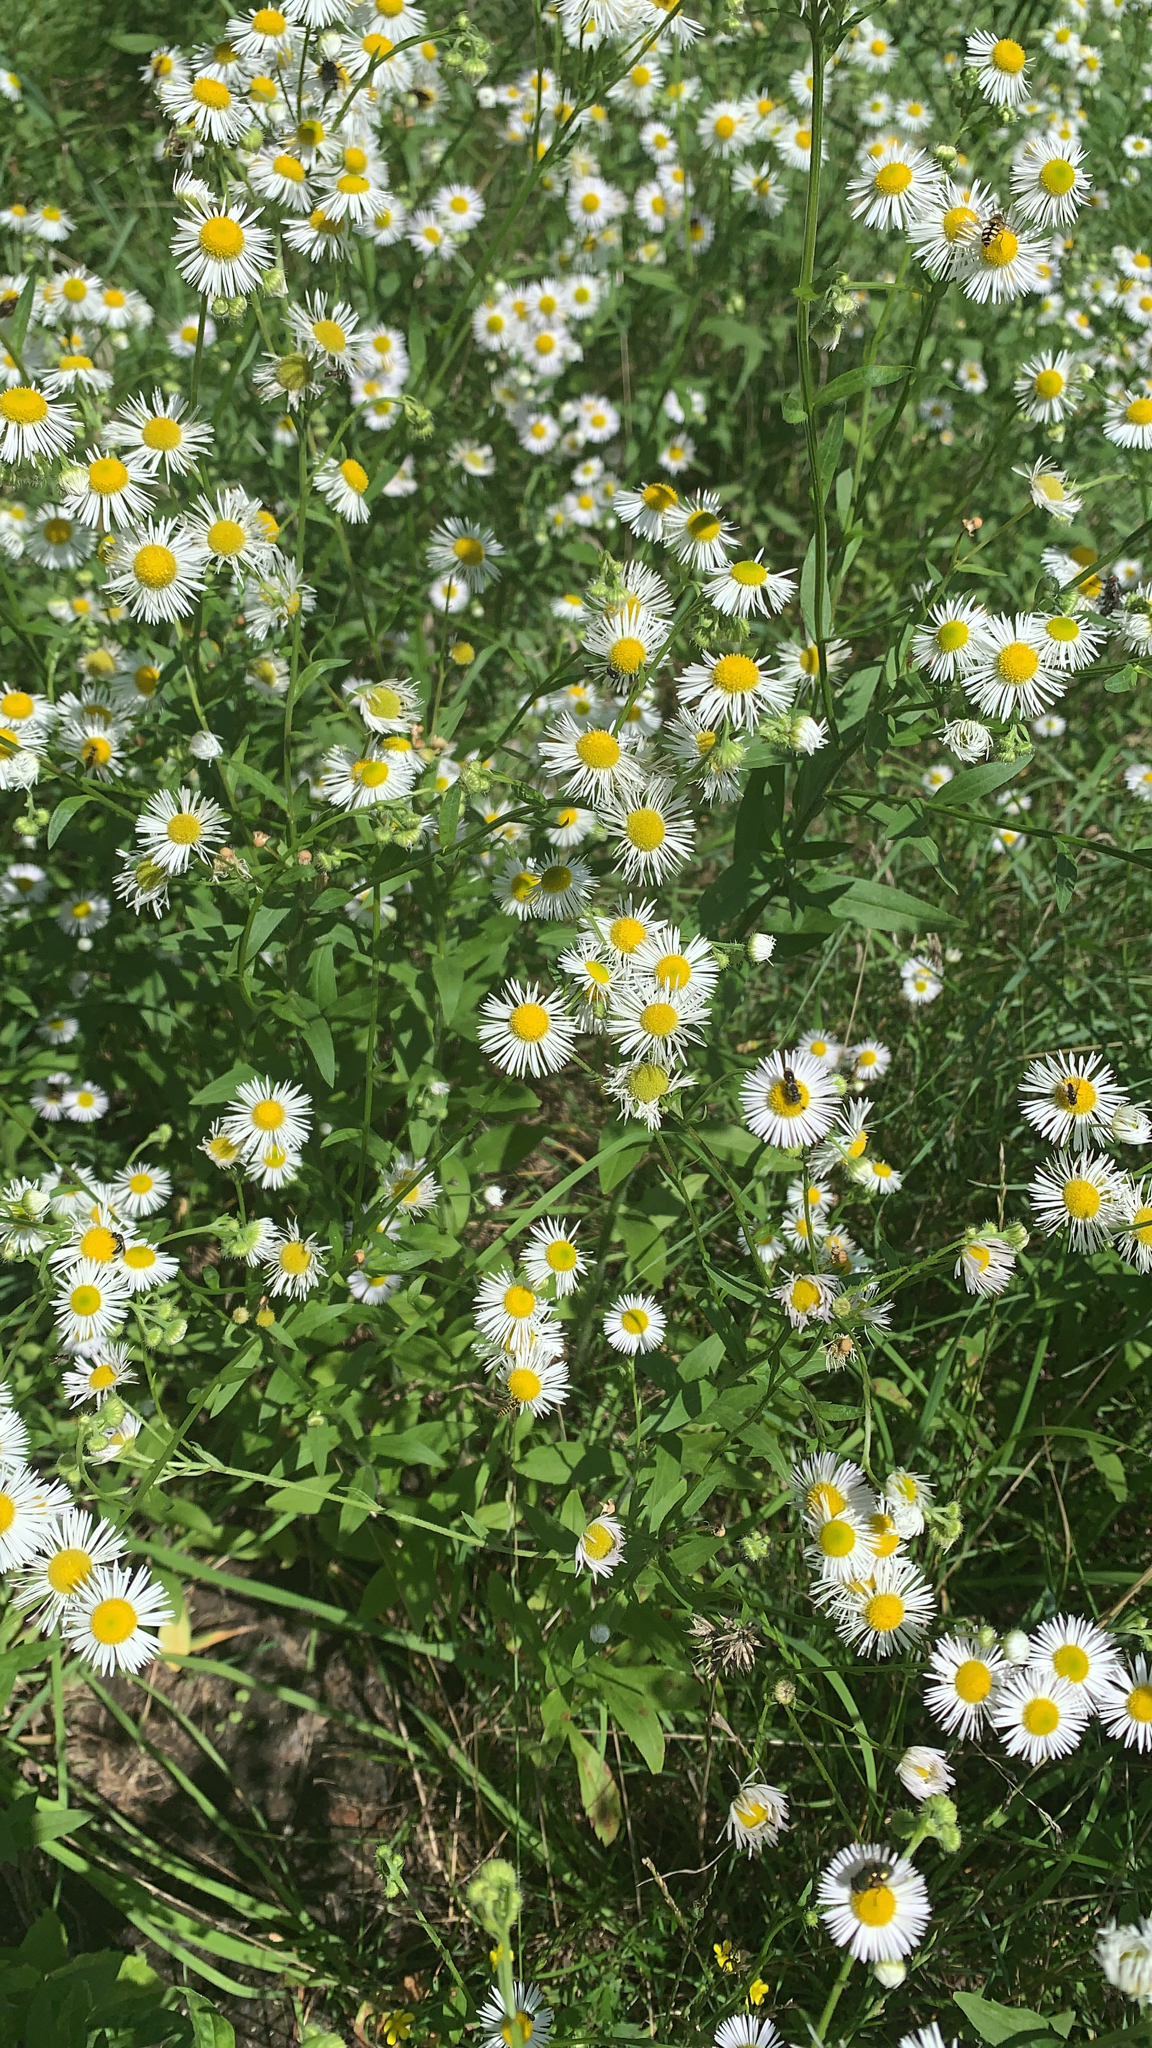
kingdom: Plantae
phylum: Tracheophyta
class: Magnoliopsida
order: Asterales
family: Asteraceae
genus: Erigeron
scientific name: Erigeron annuus
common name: Tall fleabane
